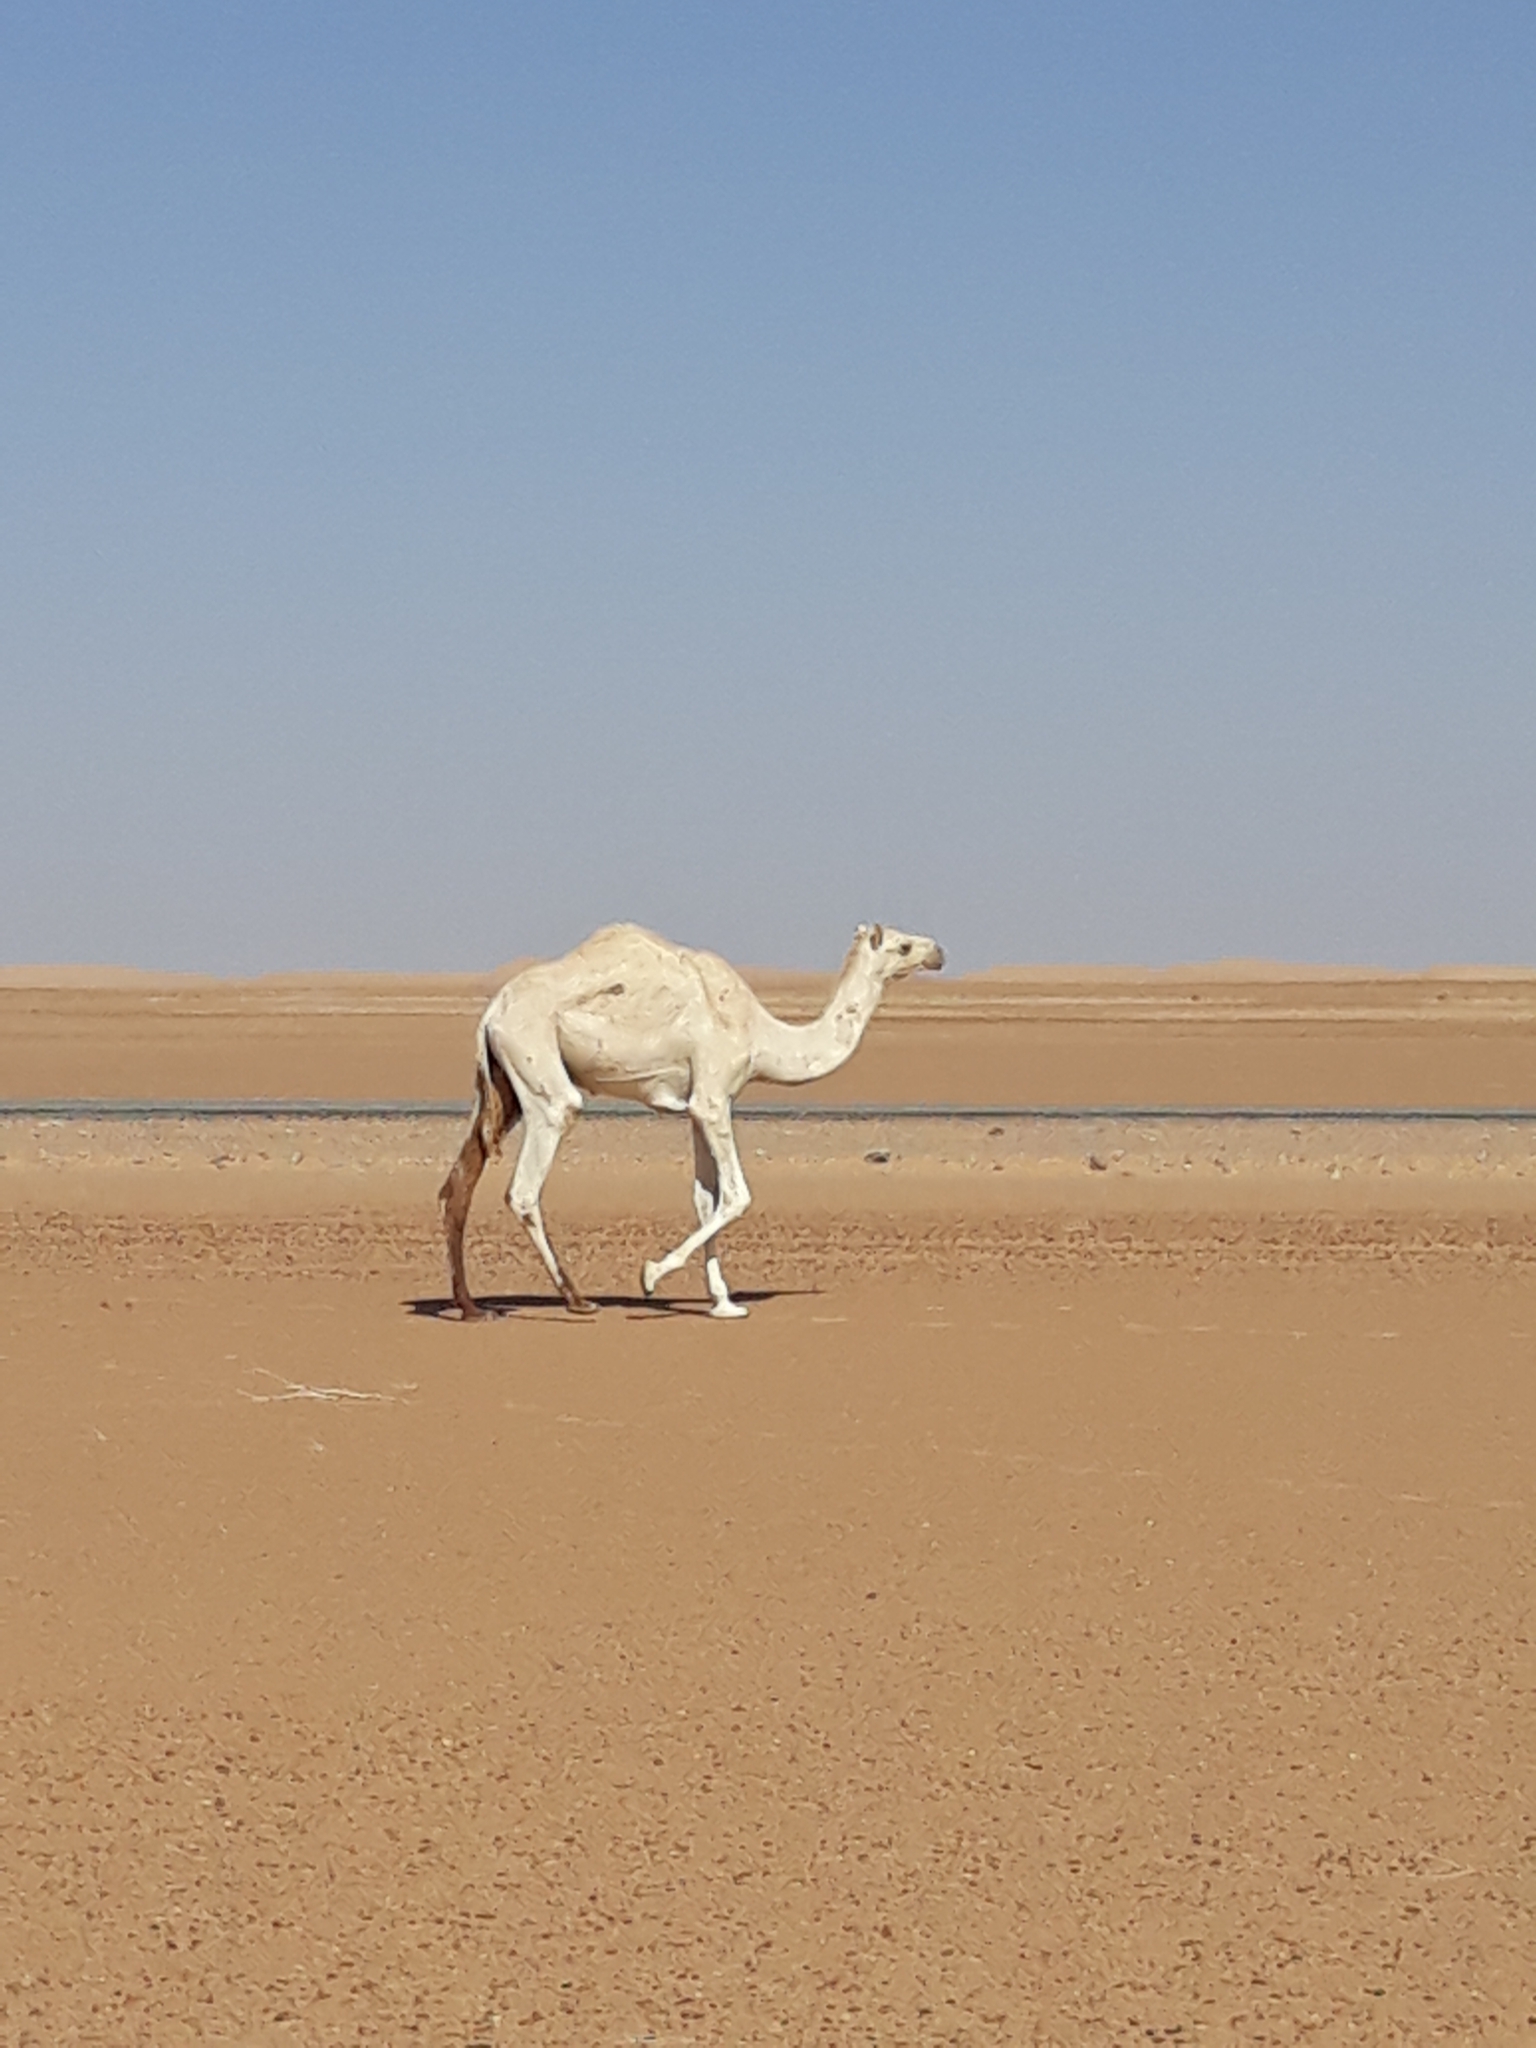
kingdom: Animalia
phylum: Chordata
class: Mammalia
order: Artiodactyla
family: Camelidae
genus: Camelus
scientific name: Camelus dromedarius
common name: One-humped camel
